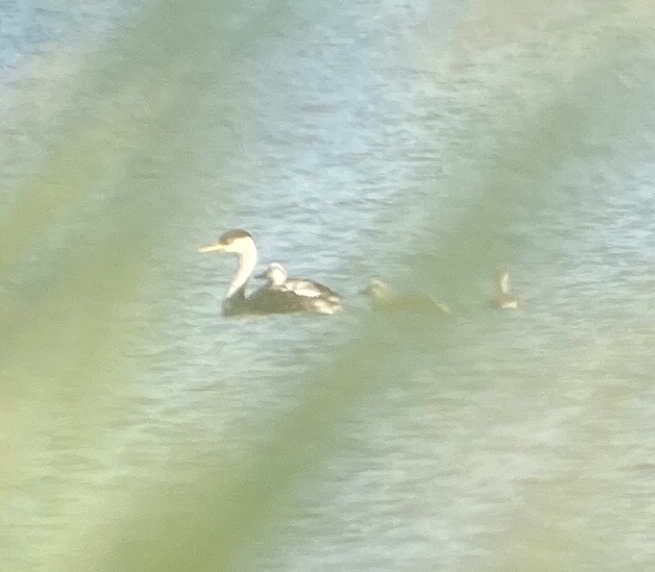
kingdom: Animalia
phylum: Chordata
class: Aves
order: Podicipediformes
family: Podicipedidae
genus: Aechmophorus
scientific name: Aechmophorus occidentalis
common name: Western grebe
